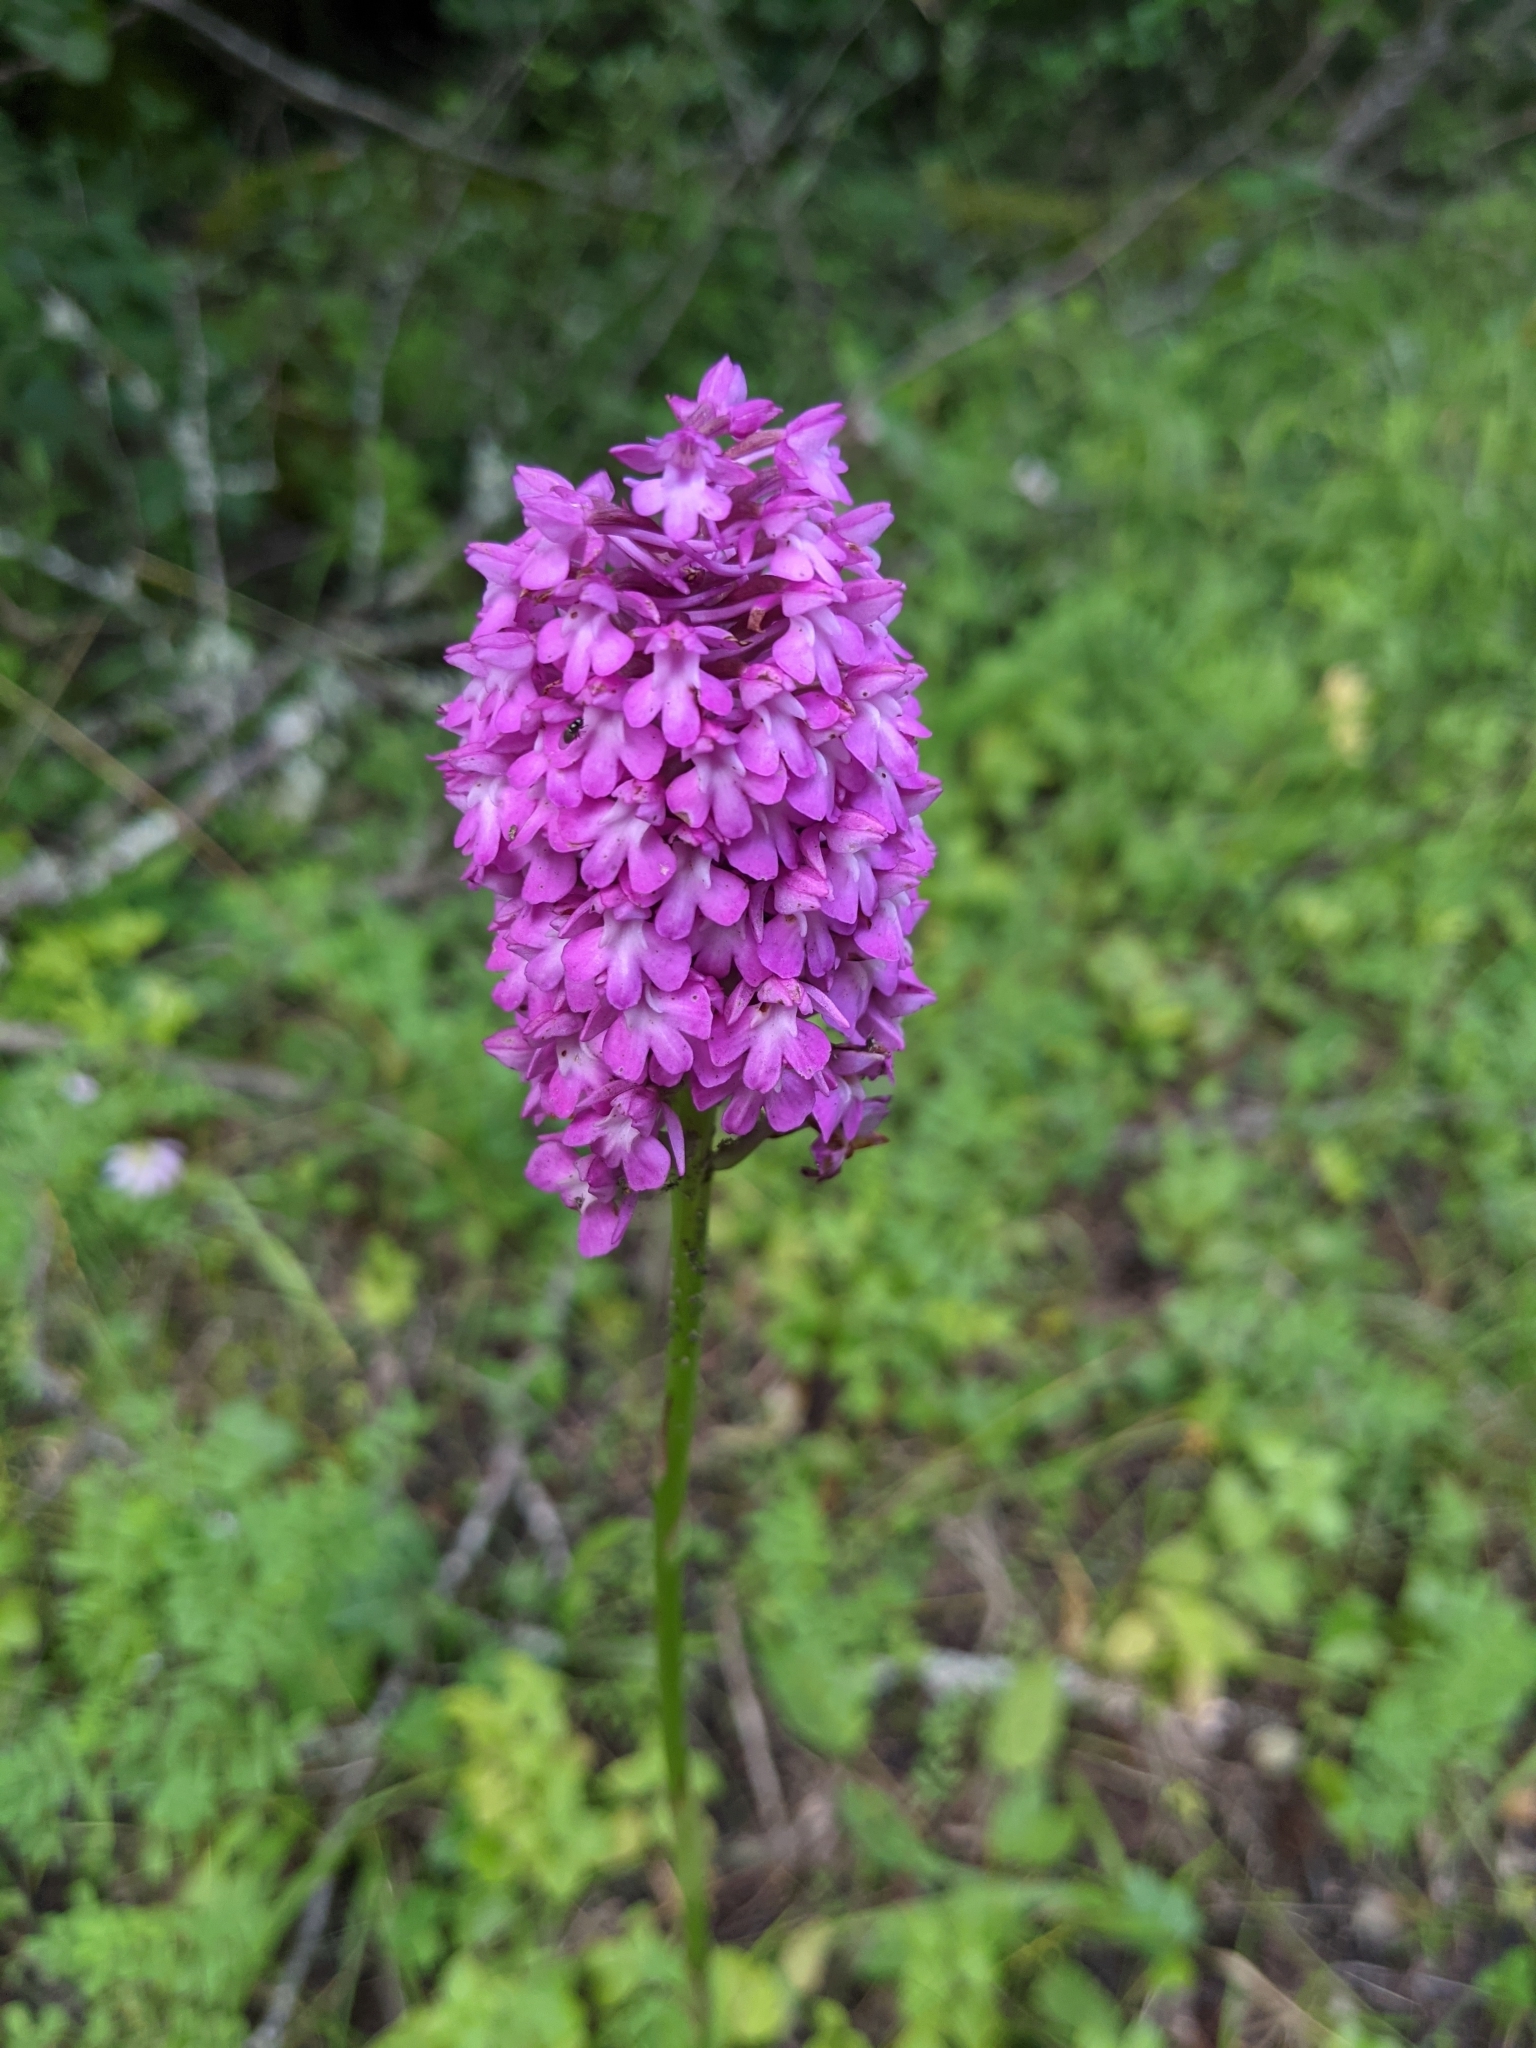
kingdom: Plantae
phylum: Tracheophyta
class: Liliopsida
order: Asparagales
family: Orchidaceae
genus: Anacamptis
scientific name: Anacamptis pyramidalis
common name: Pyramidal orchid
